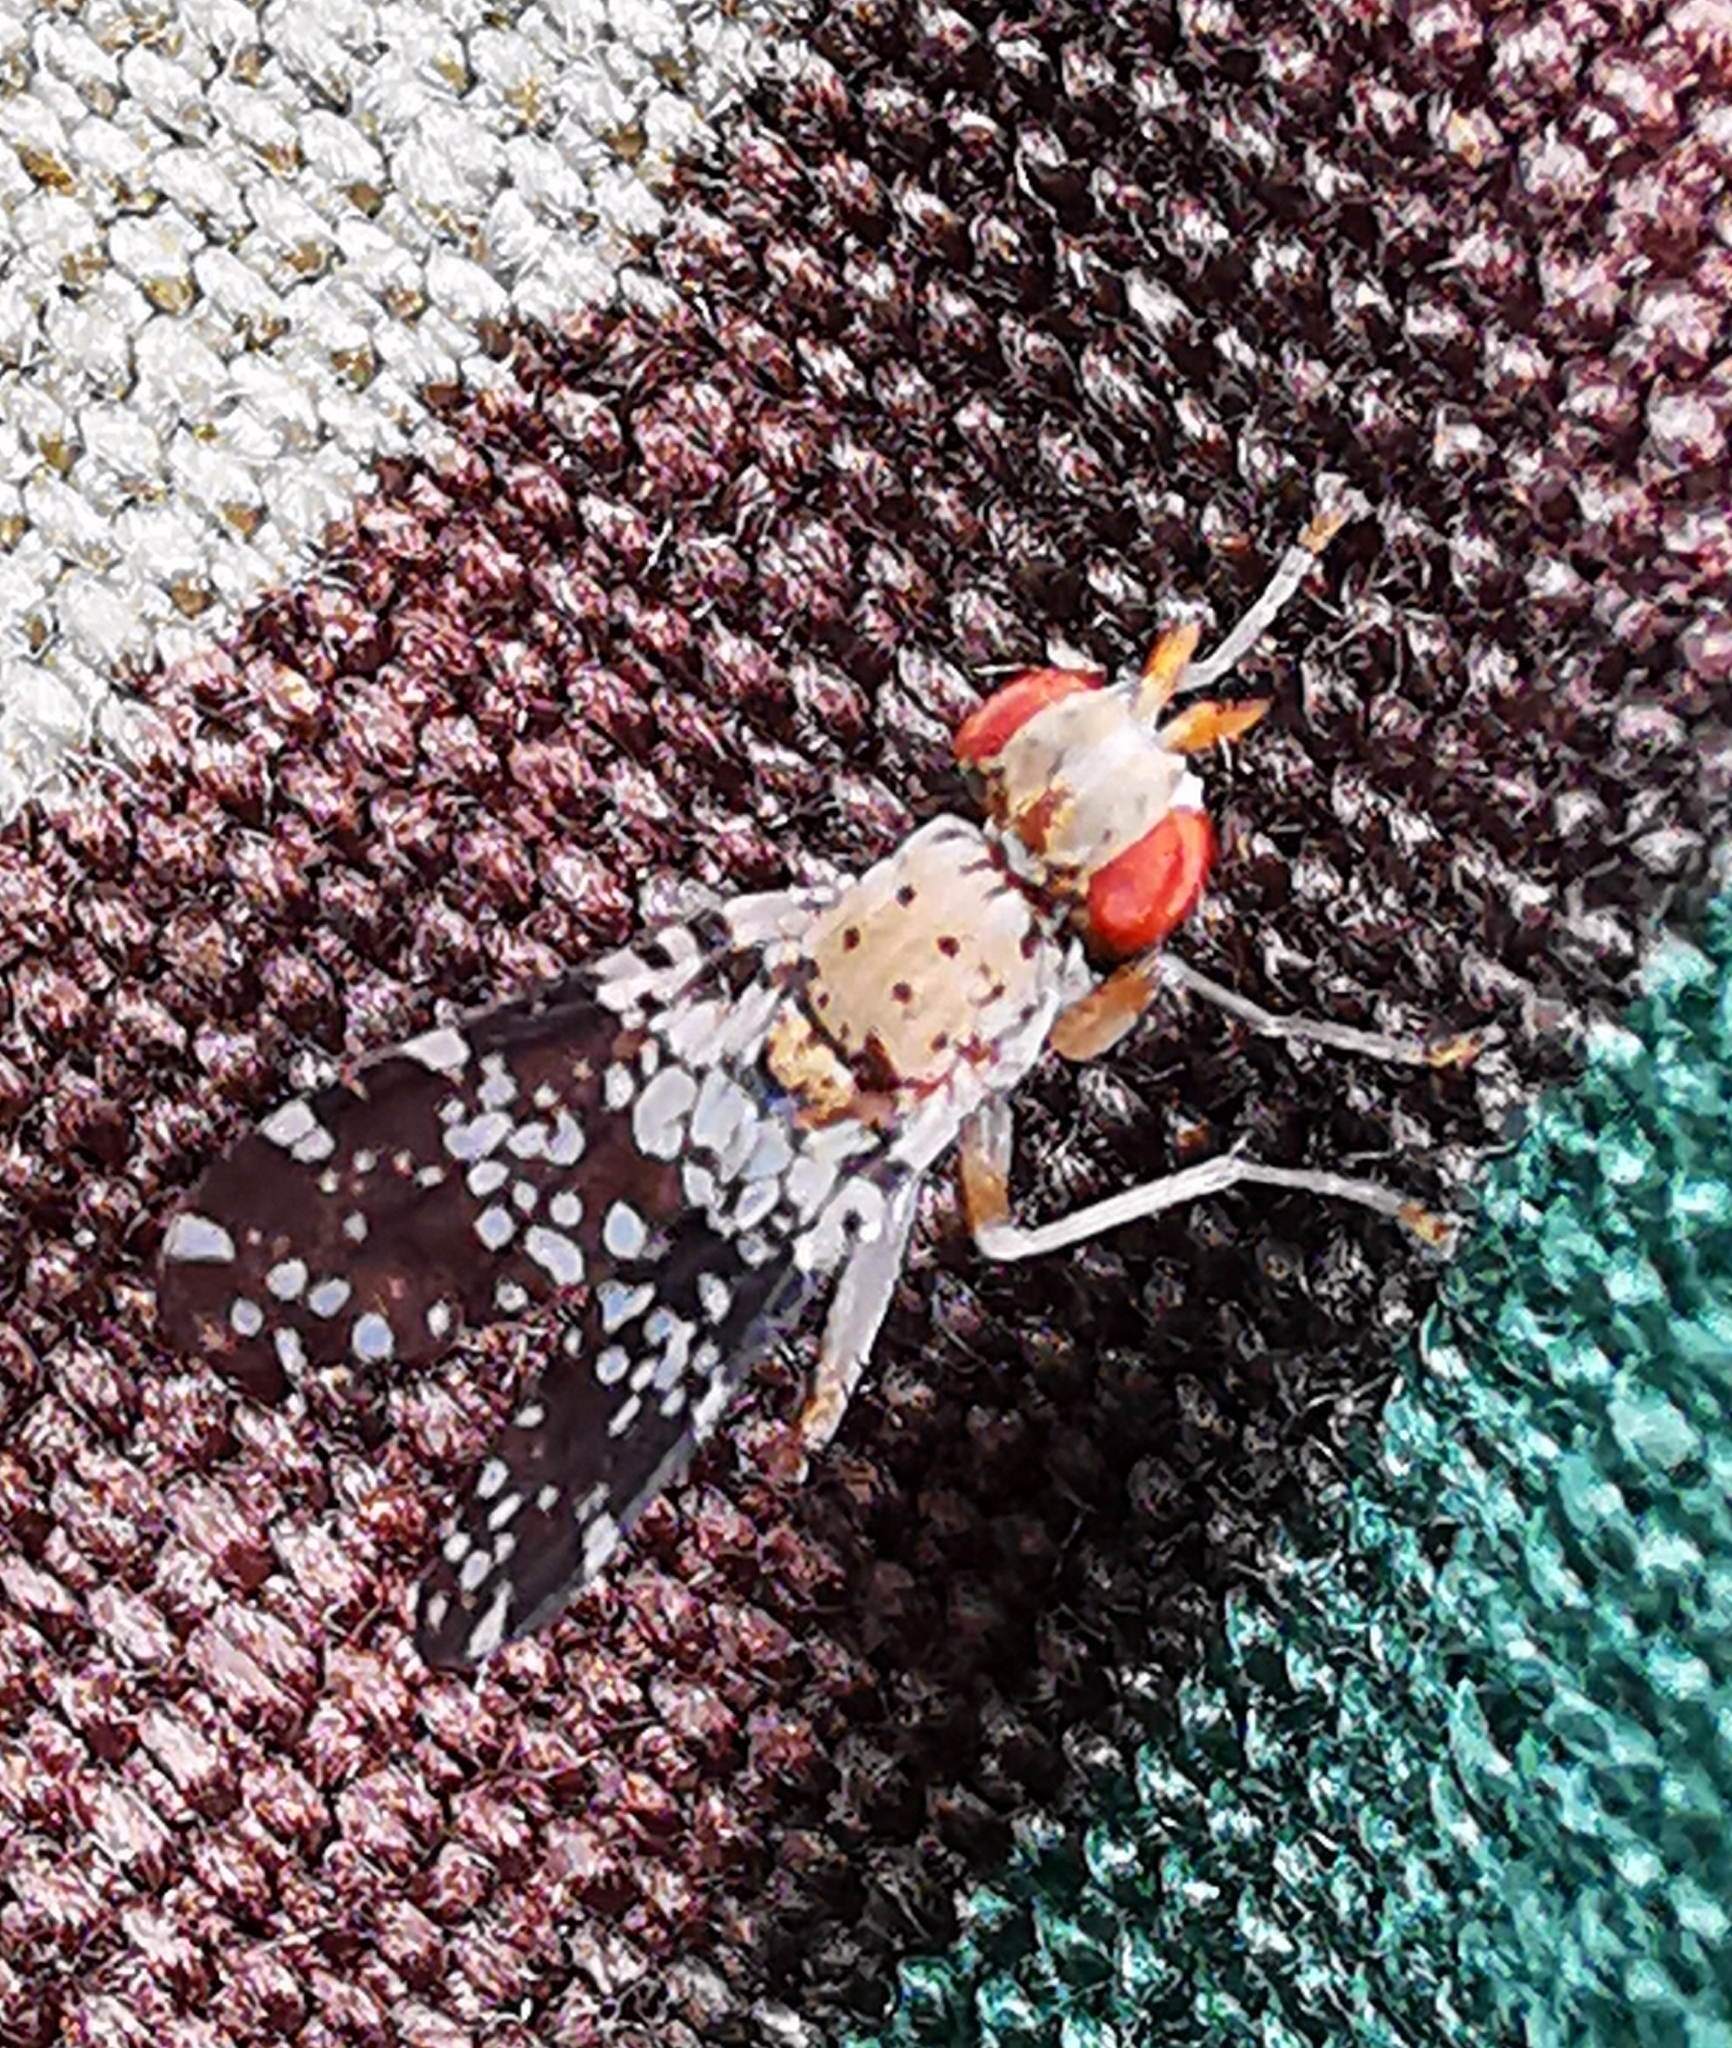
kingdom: Animalia
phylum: Arthropoda
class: Insecta
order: Diptera
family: Sciomyzidae
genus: Trypetoptera
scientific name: Trypetoptera punctulata
